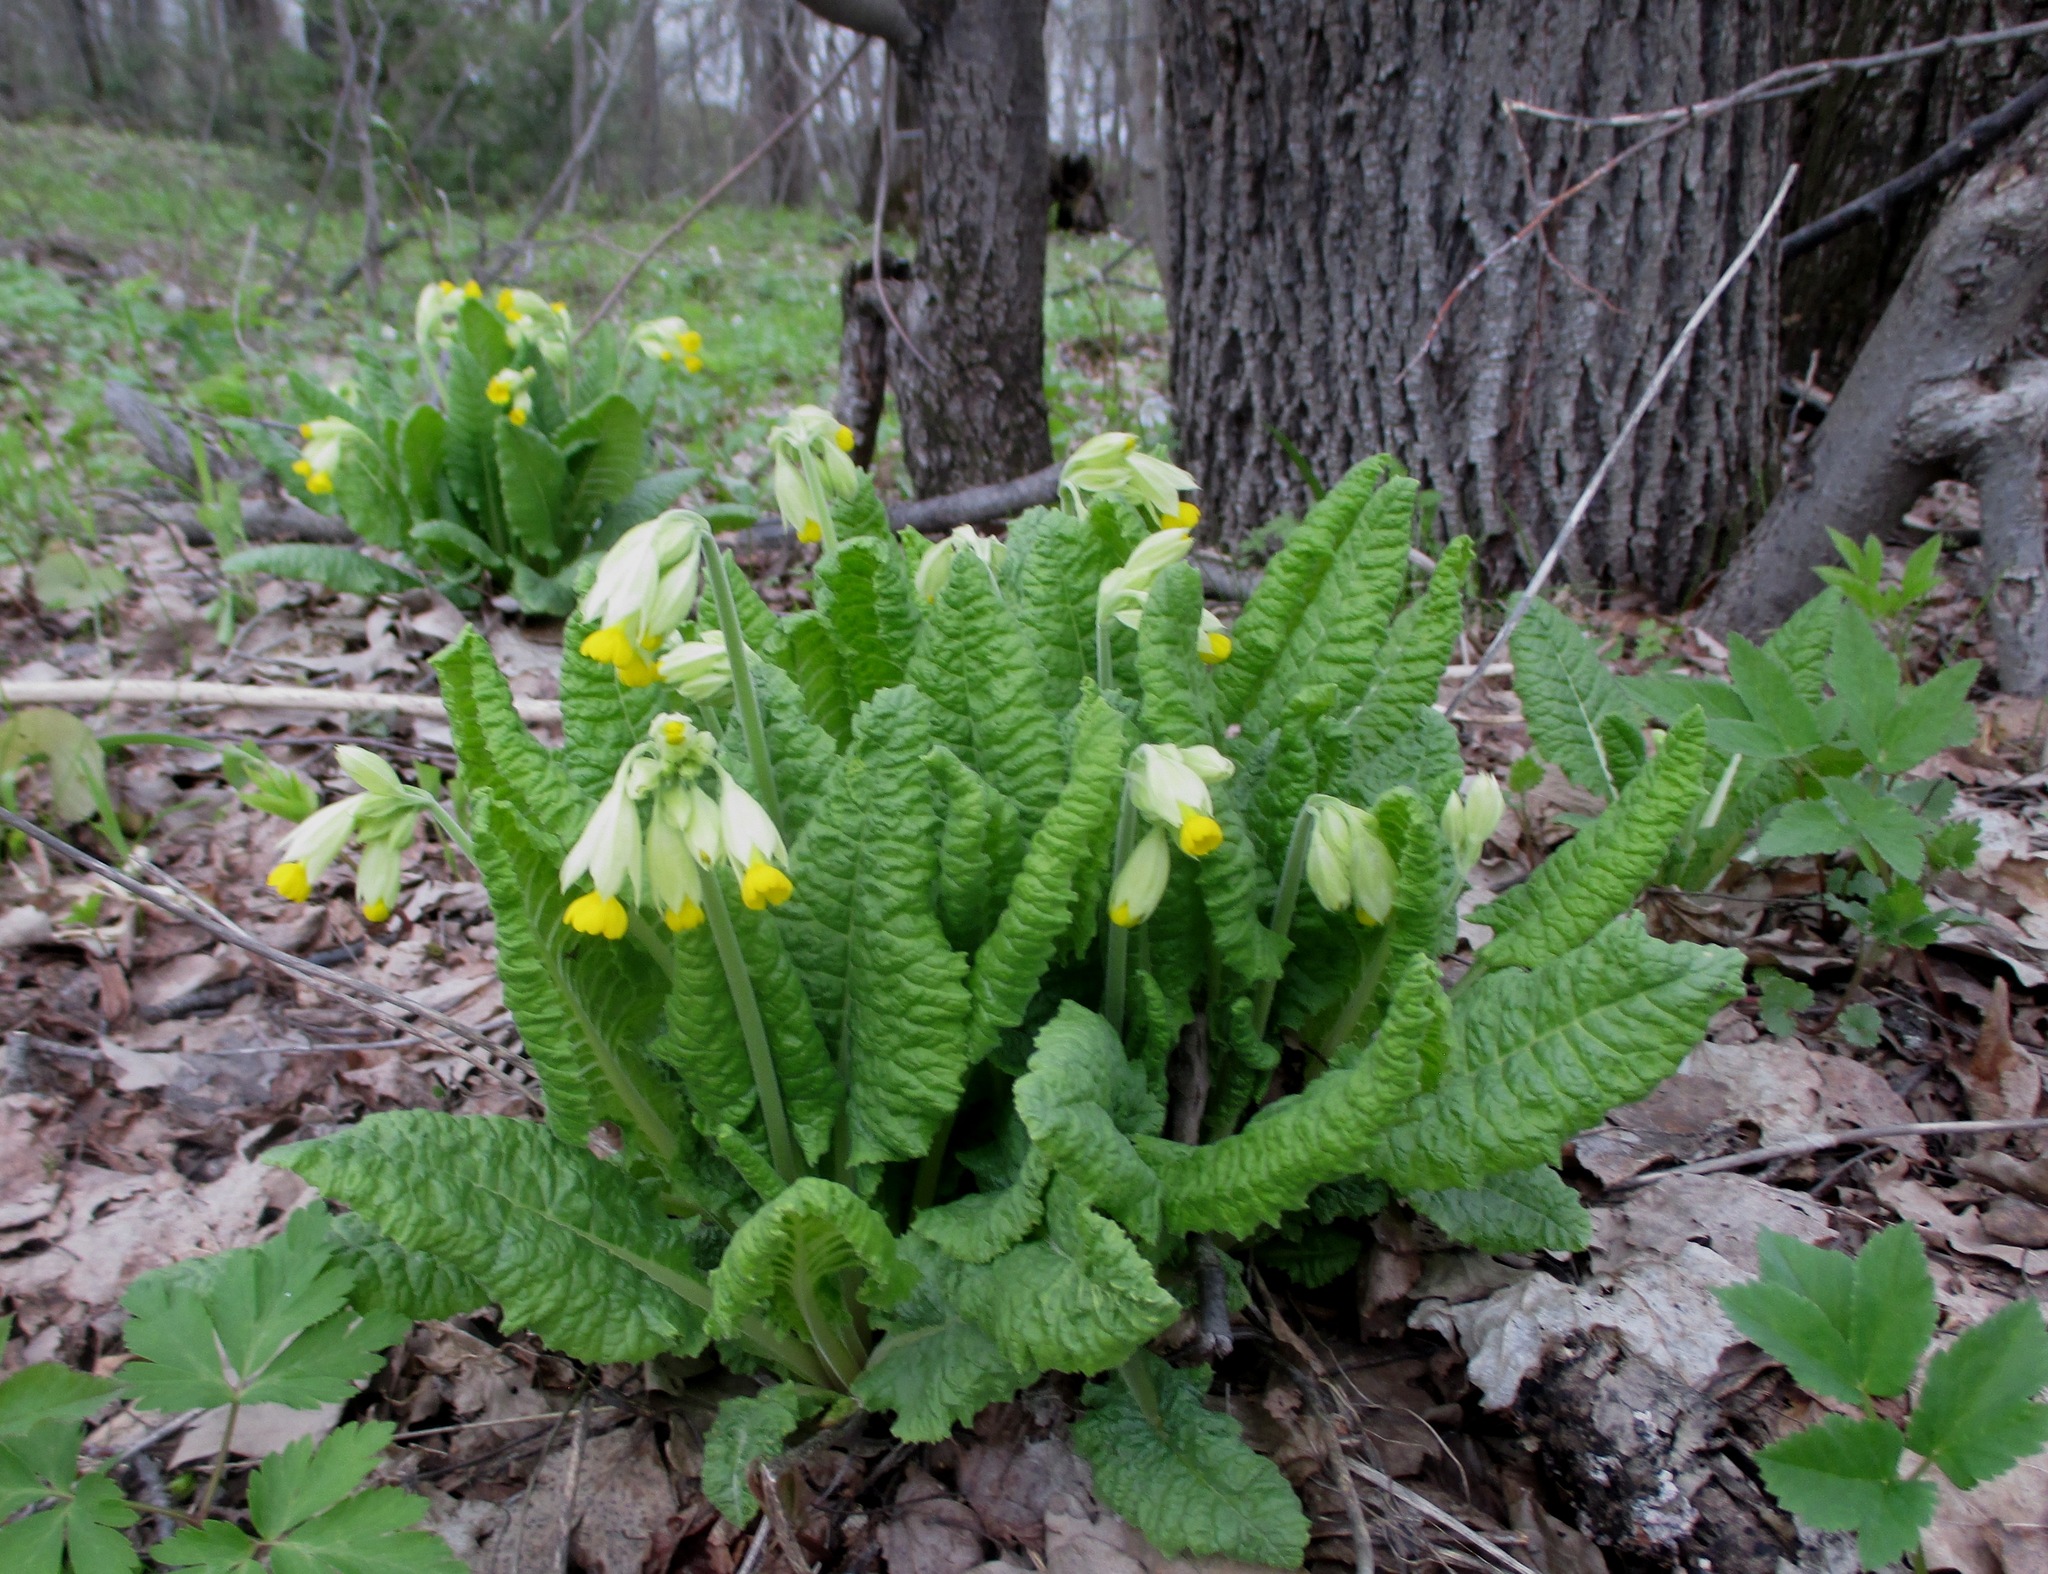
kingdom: Plantae
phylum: Tracheophyta
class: Magnoliopsida
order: Ericales
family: Primulaceae
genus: Primula
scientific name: Primula veris
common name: Cowslip
